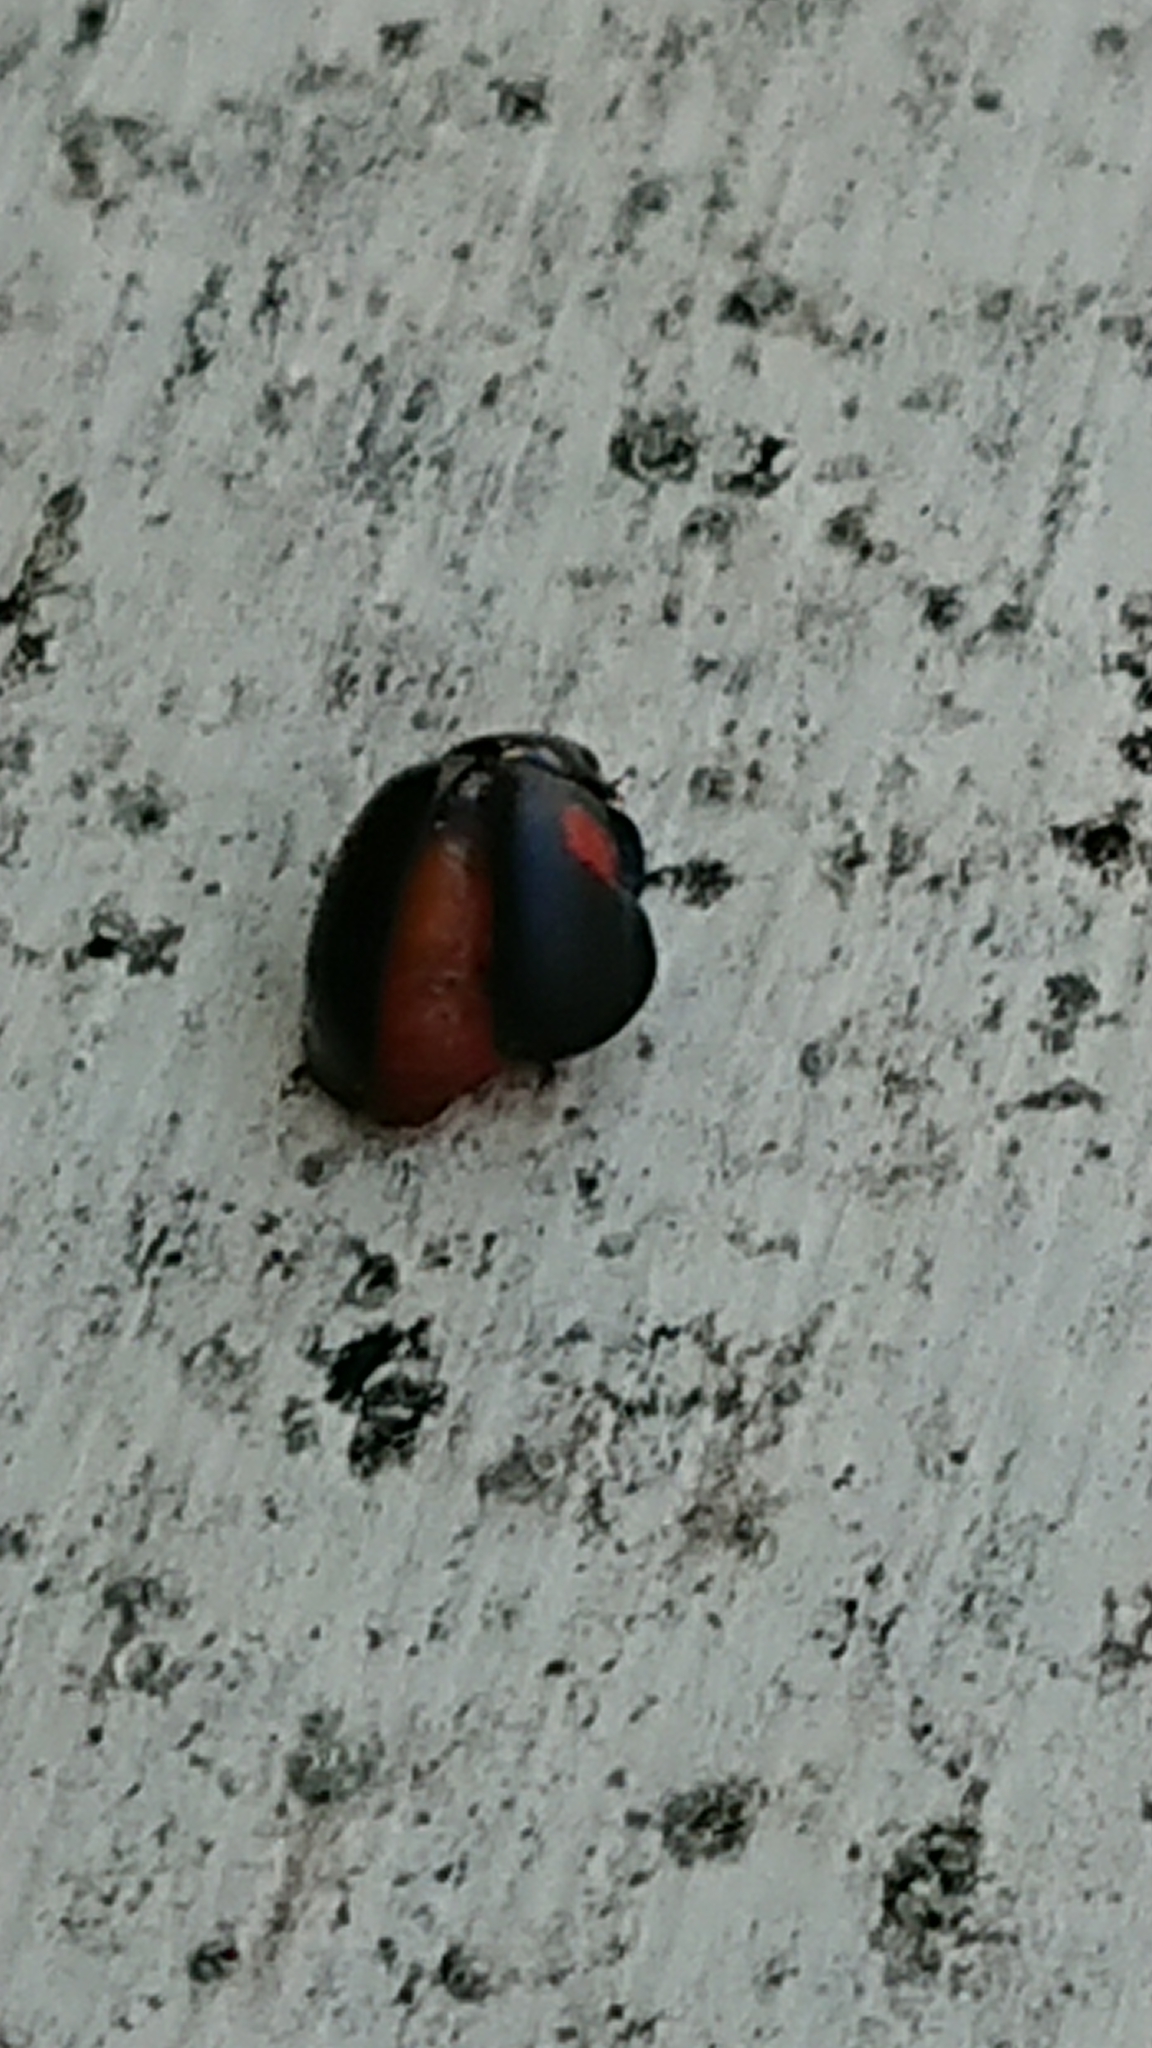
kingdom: Animalia
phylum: Arthropoda
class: Insecta
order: Coleoptera
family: Coccinellidae
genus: Chilocorus
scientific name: Chilocorus renipustulatus
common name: Kidney-spot ladybird
